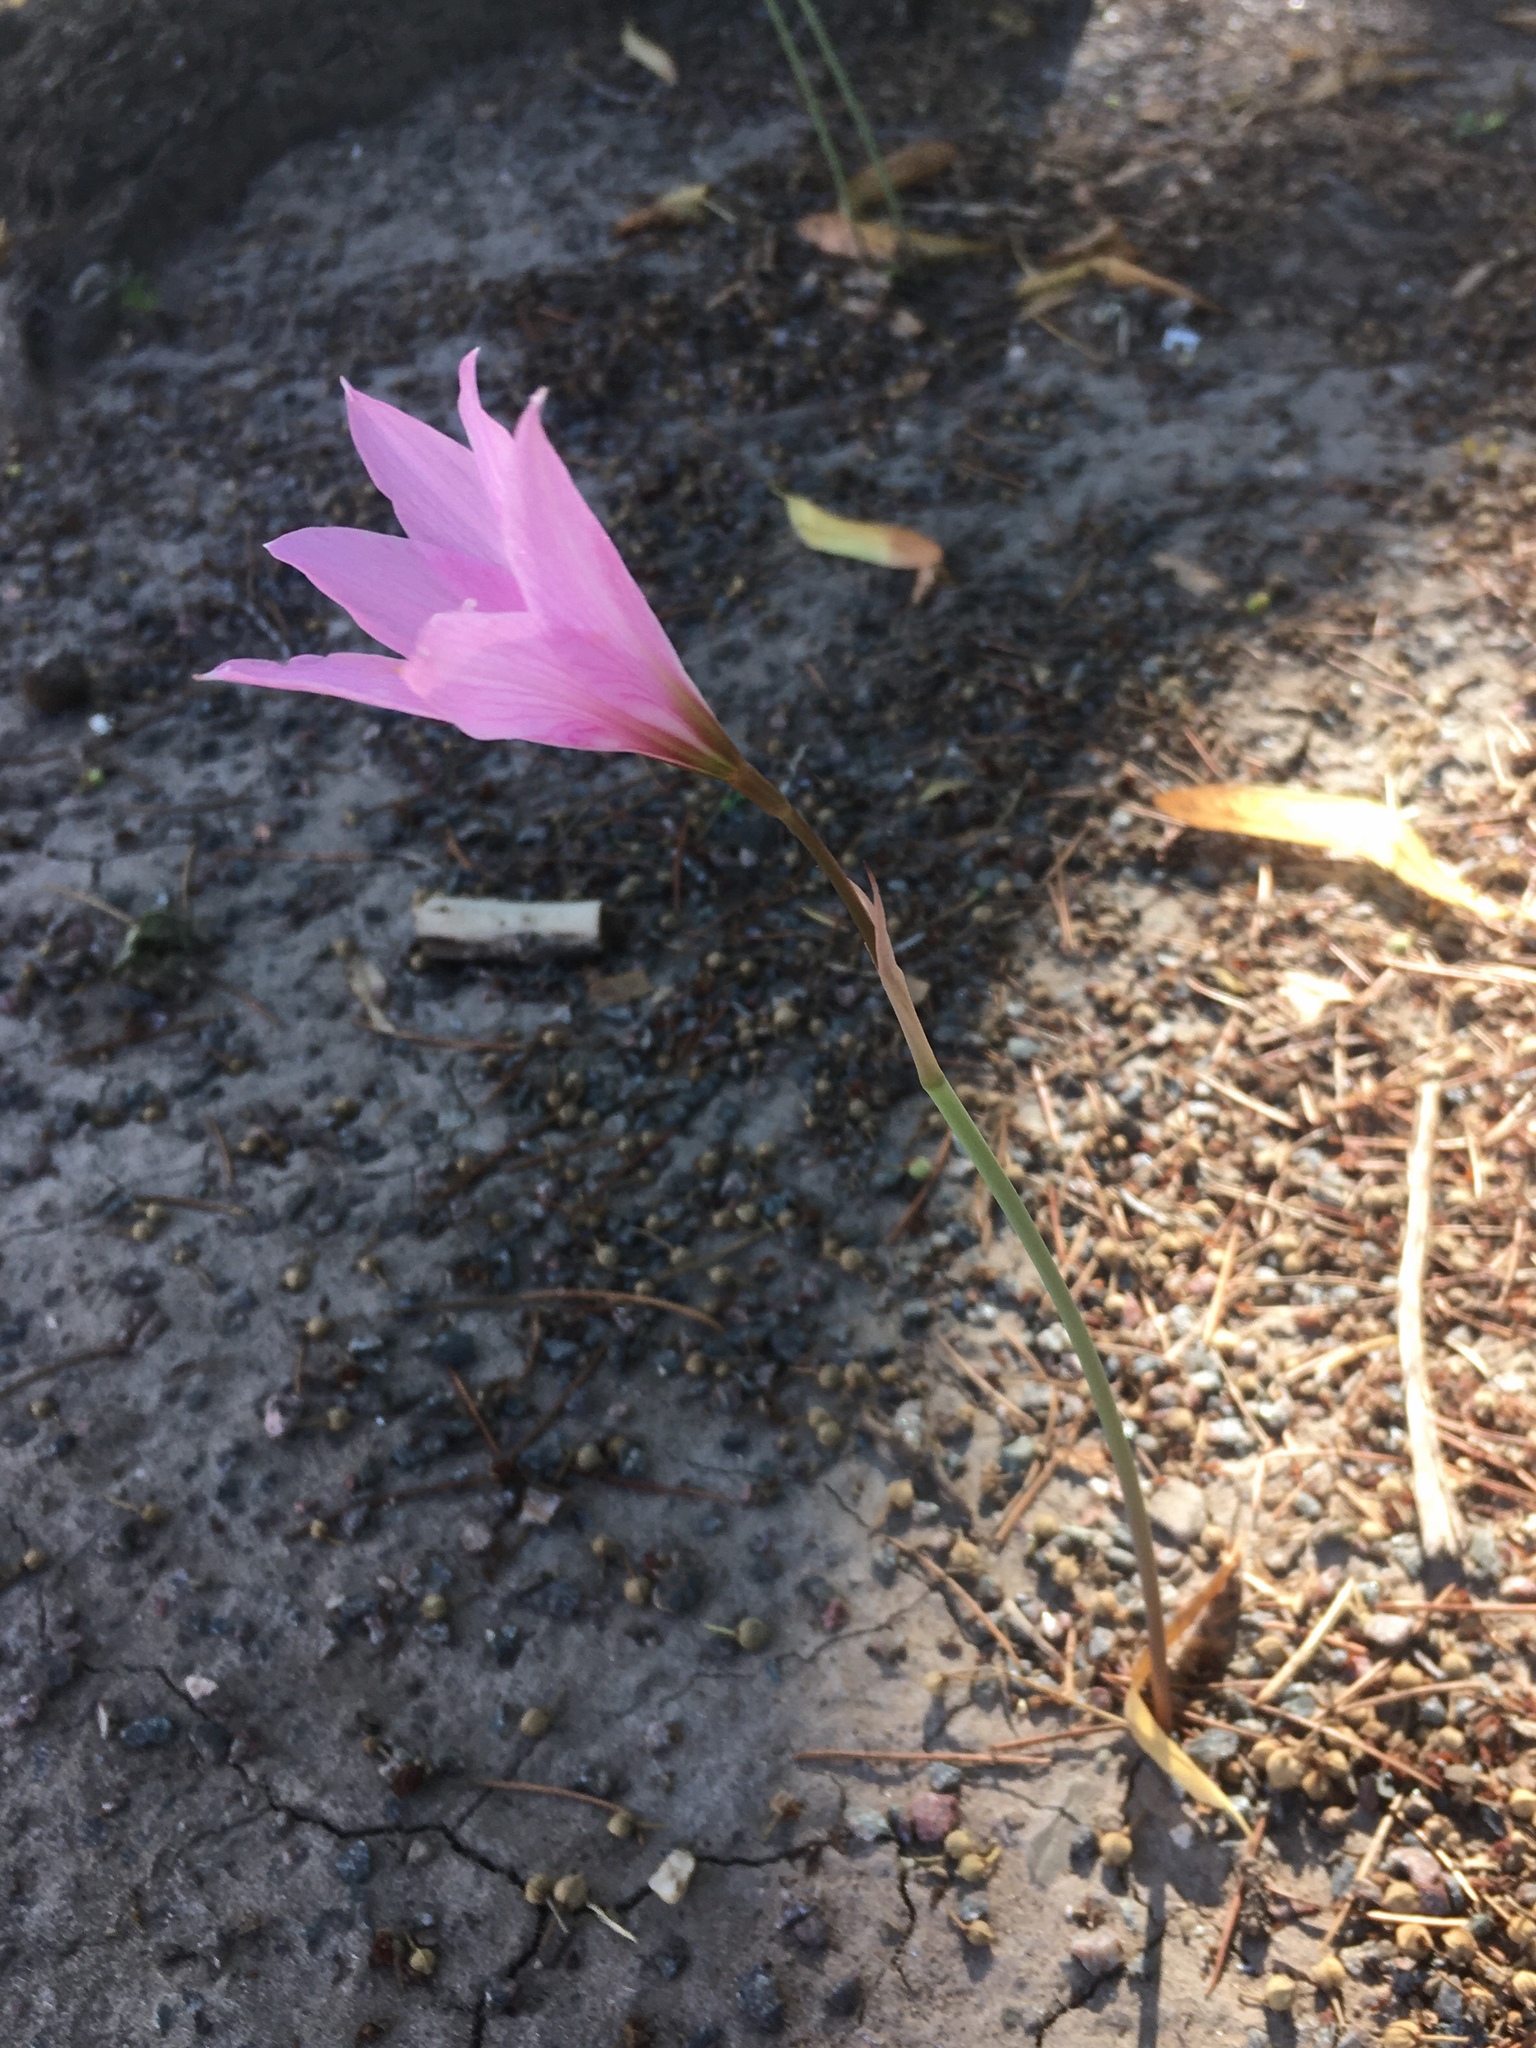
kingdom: Plantae
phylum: Tracheophyta
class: Liliopsida
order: Asparagales
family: Amaryllidaceae
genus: Zephyranthes
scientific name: Zephyranthes gracilifolia
